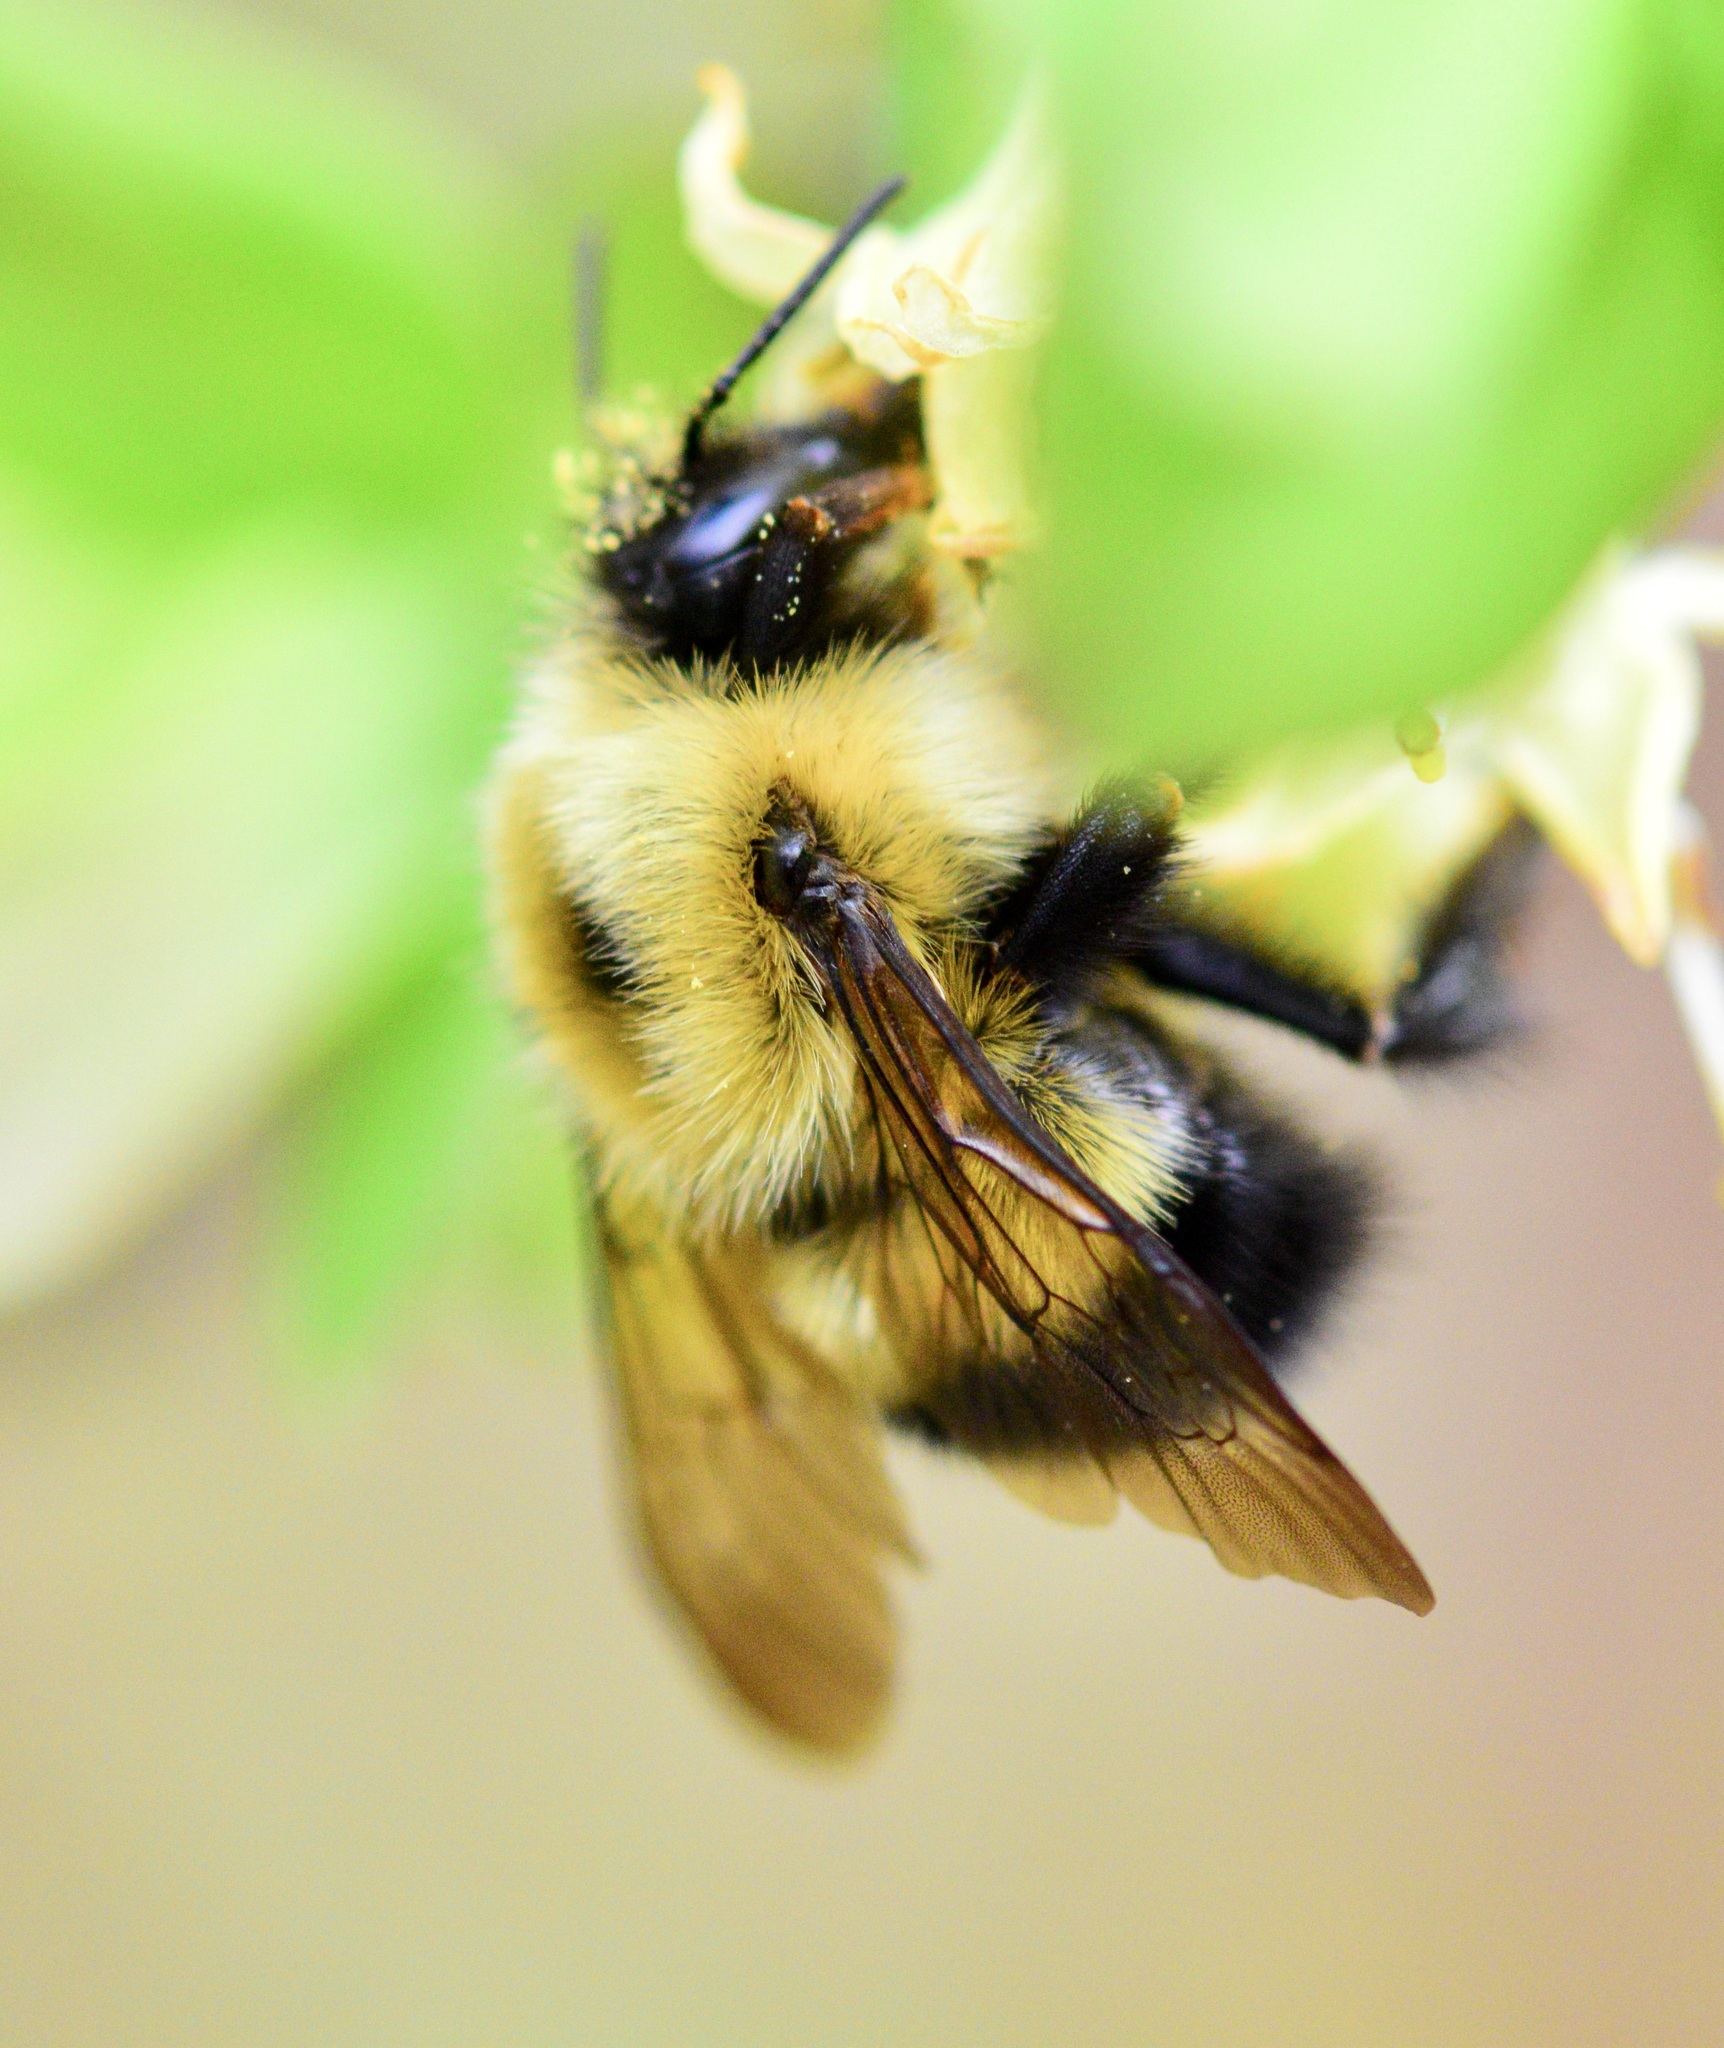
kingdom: Animalia
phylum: Arthropoda
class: Insecta
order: Hymenoptera
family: Apidae
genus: Pyrobombus
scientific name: Pyrobombus
